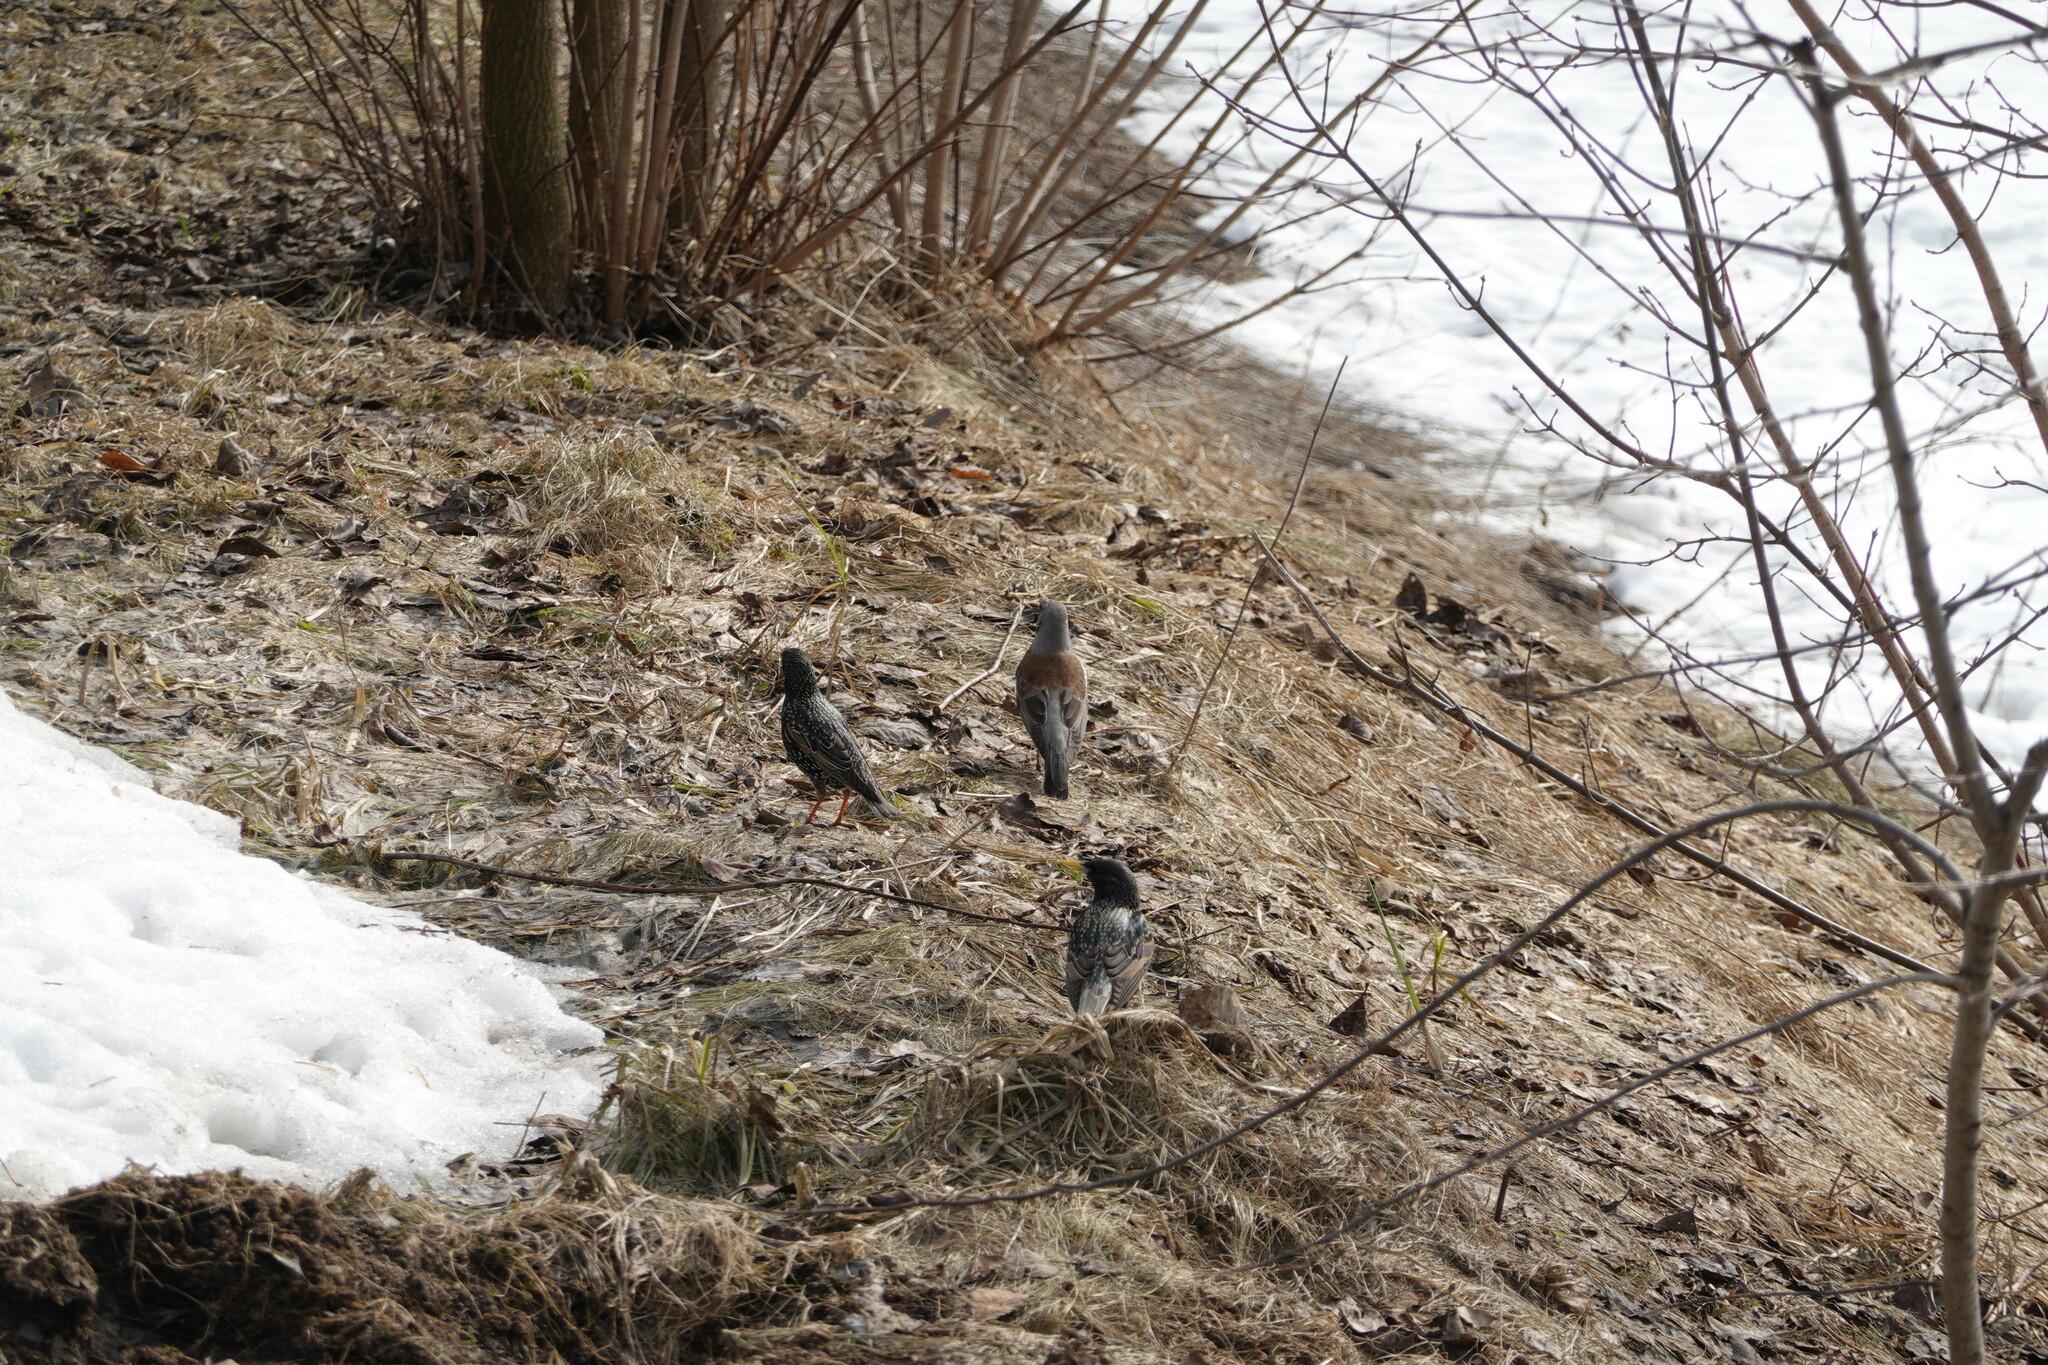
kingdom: Animalia
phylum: Chordata
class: Aves
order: Passeriformes
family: Sturnidae
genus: Sturnus
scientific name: Sturnus vulgaris
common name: Common starling
